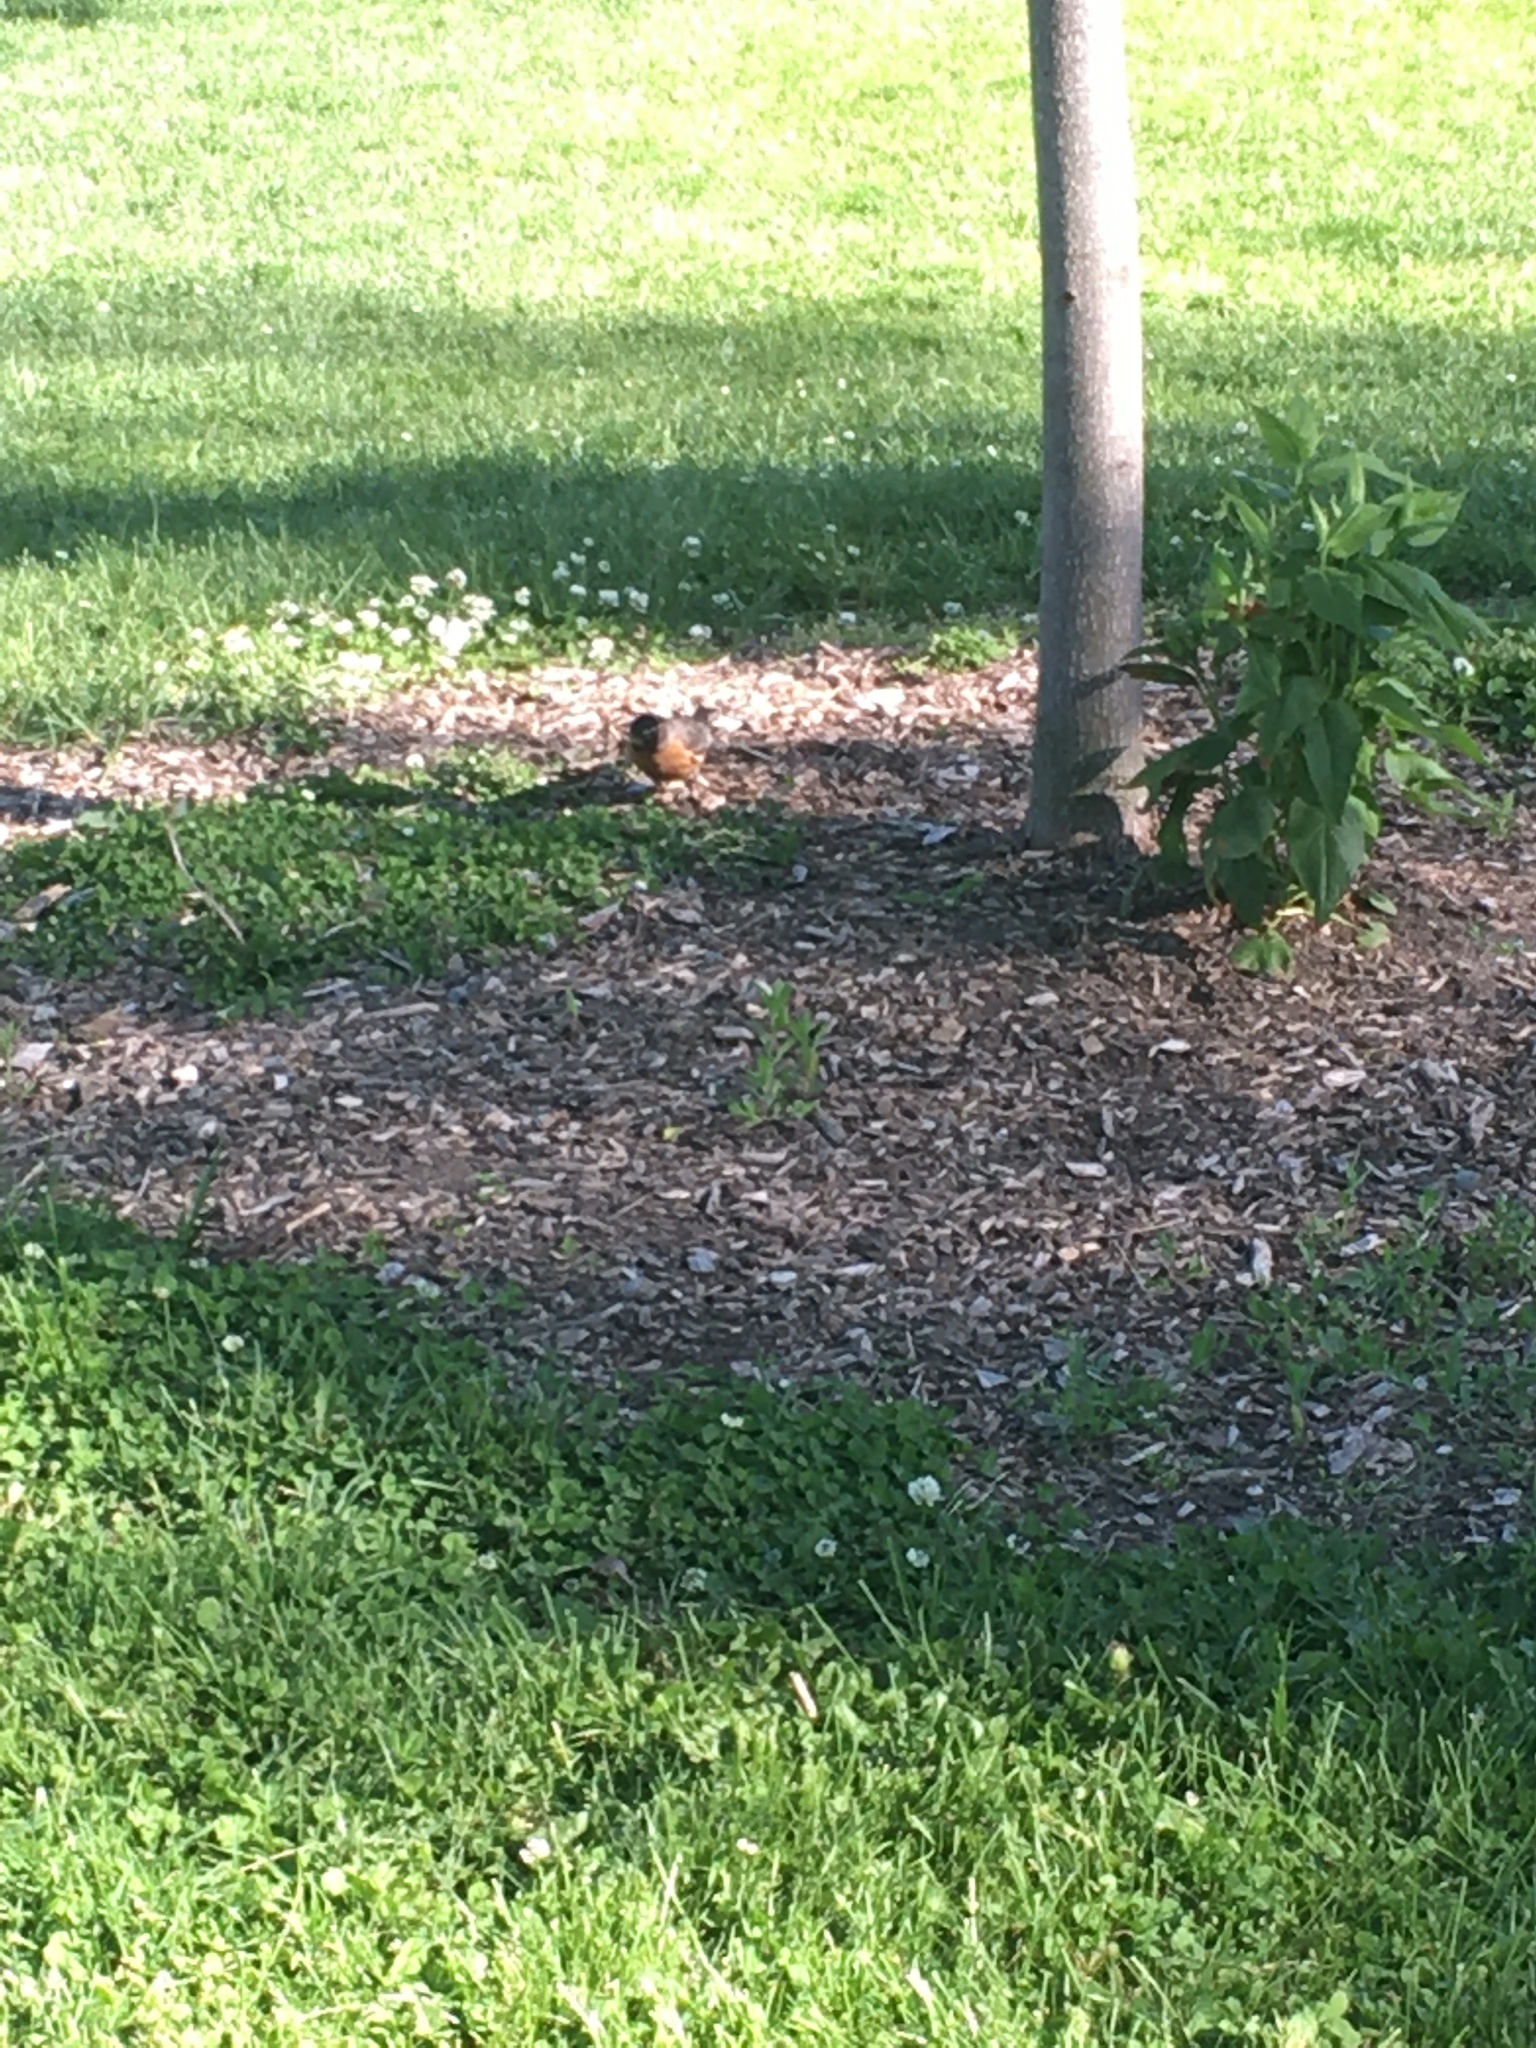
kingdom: Animalia
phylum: Chordata
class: Aves
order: Passeriformes
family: Turdidae
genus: Turdus
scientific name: Turdus migratorius
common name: American robin
